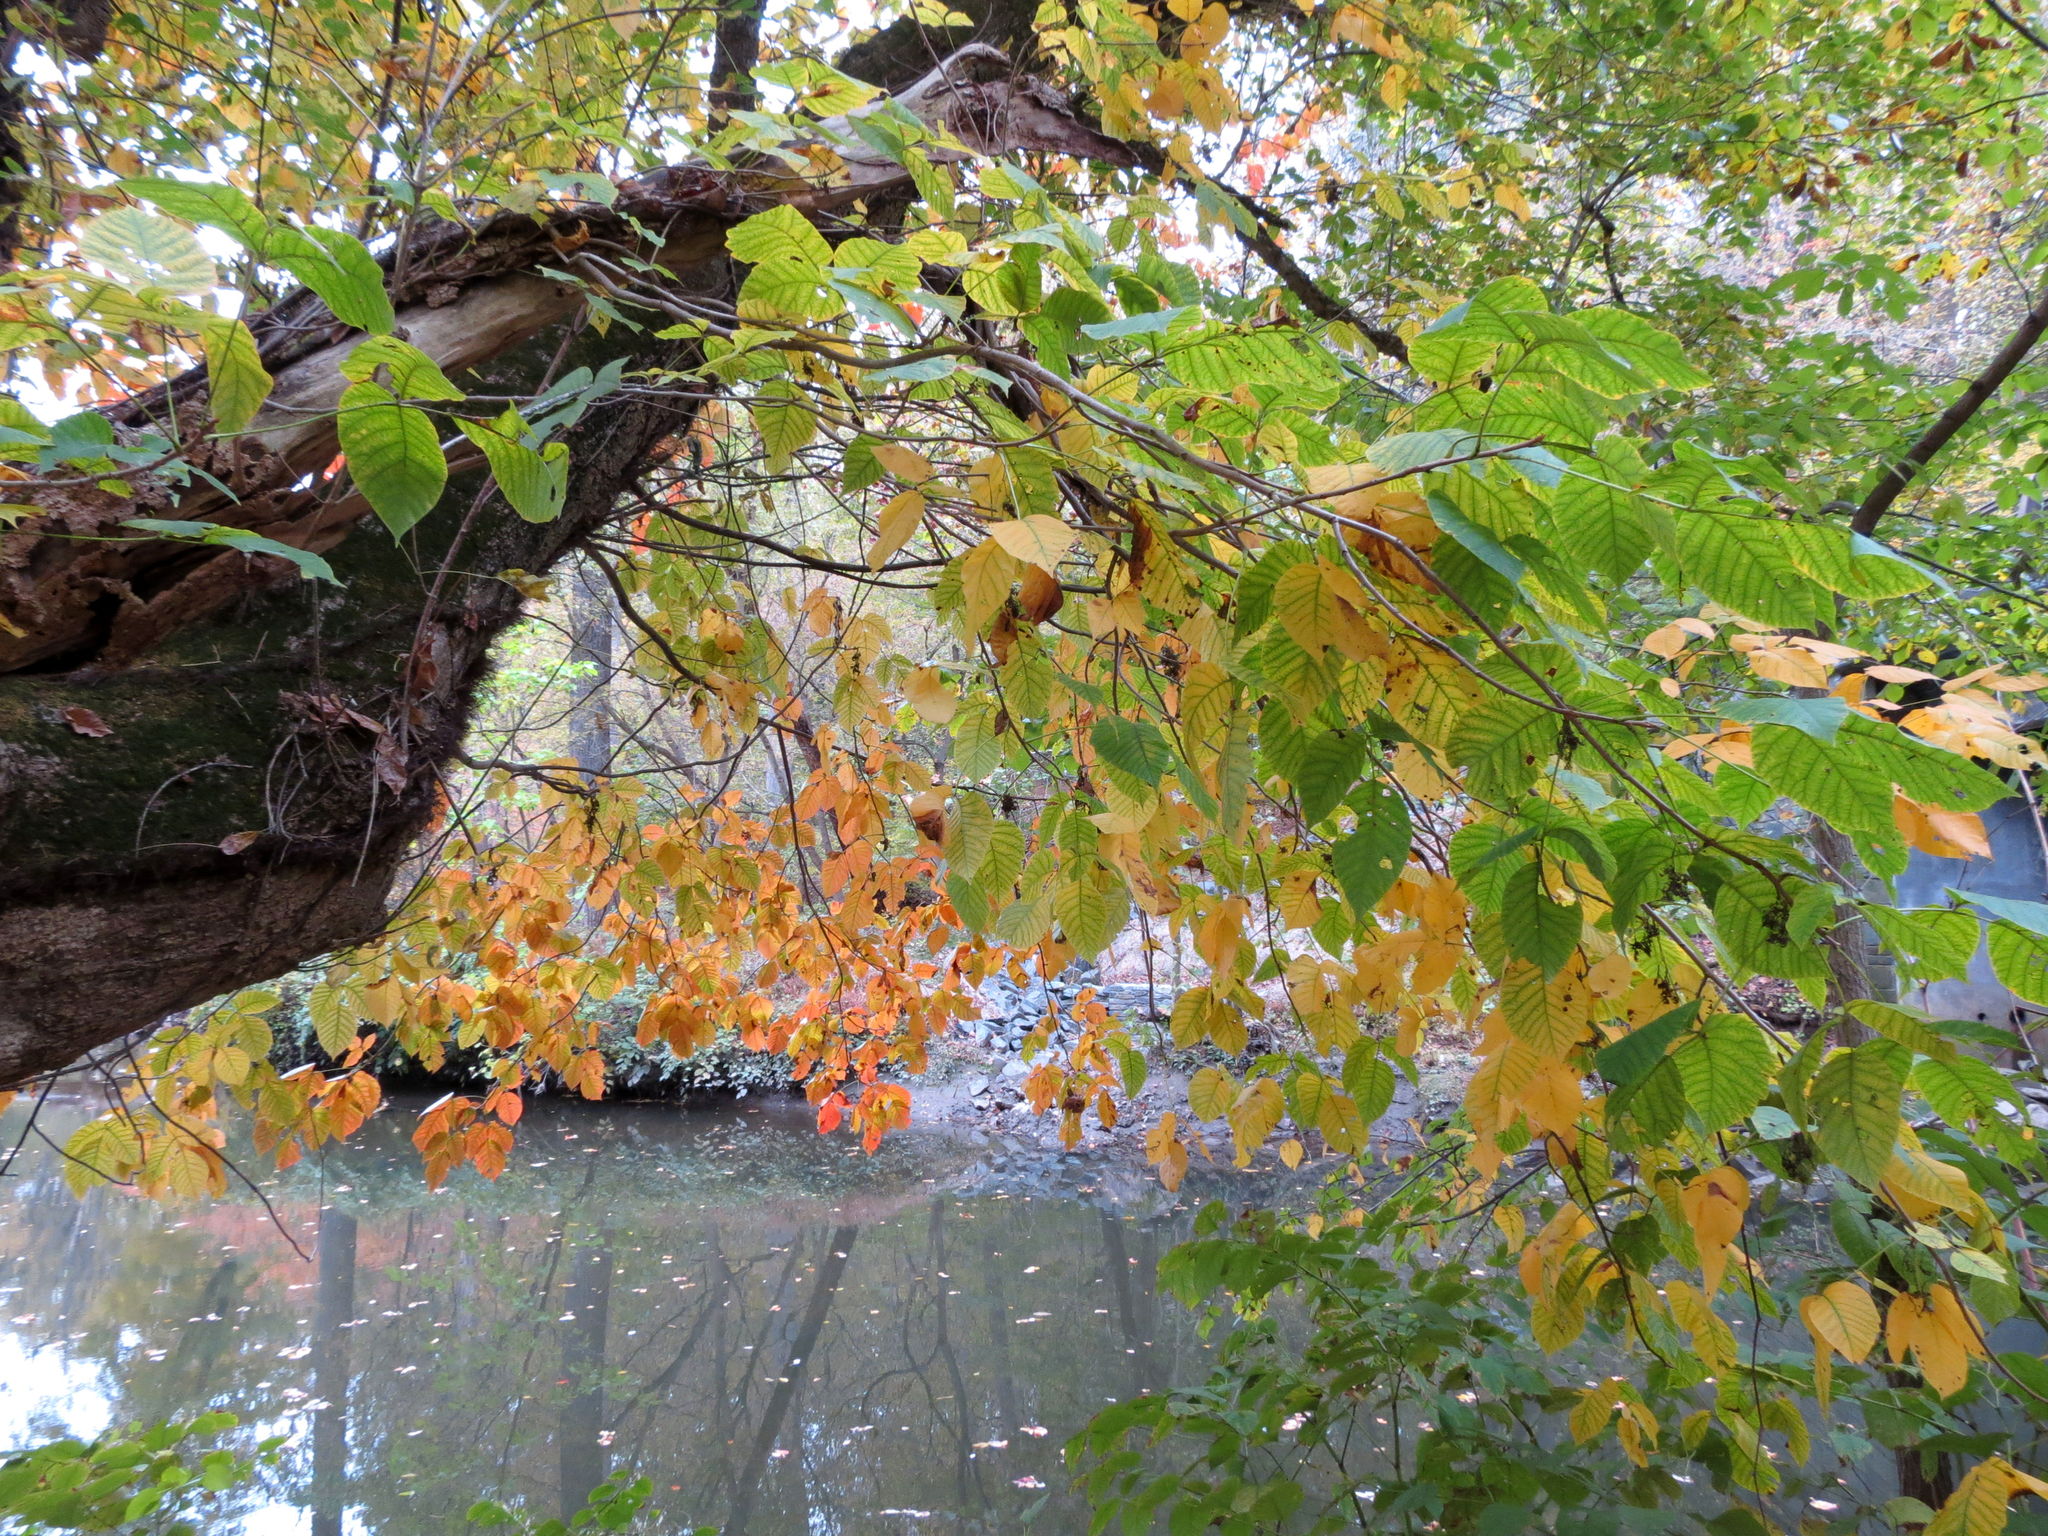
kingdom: Plantae
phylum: Tracheophyta
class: Magnoliopsida
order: Sapindales
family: Anacardiaceae
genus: Toxicodendron
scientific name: Toxicodendron radicans
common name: Poison ivy
